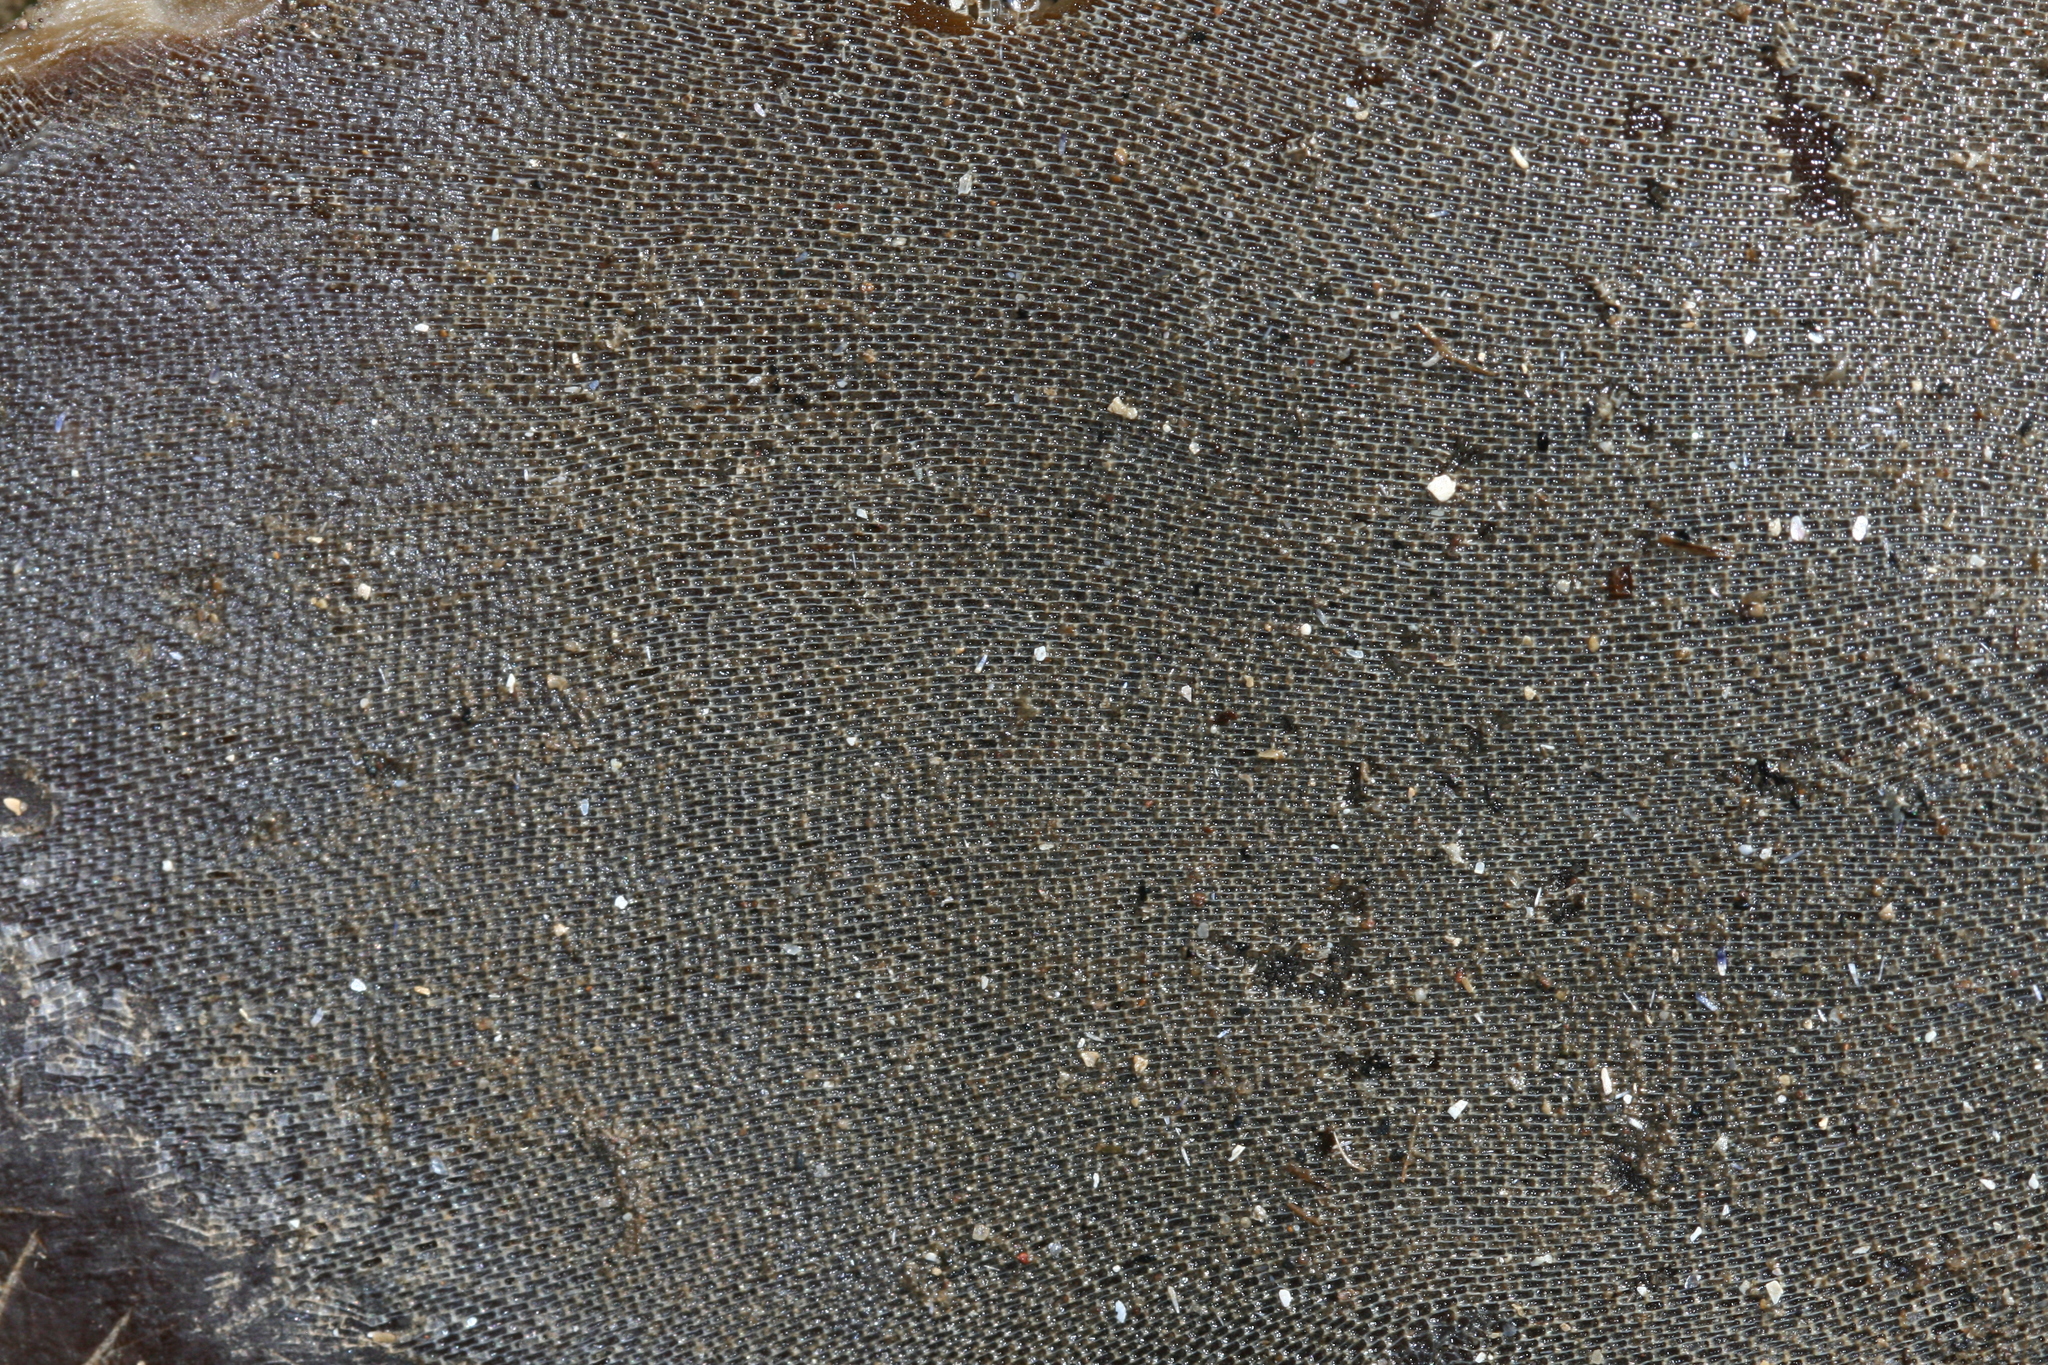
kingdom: Animalia
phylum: Bryozoa
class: Gymnolaemata
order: Cheilostomatida
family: Membraniporidae
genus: Membranipora
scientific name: Membranipora membranacea
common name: Sea mat
